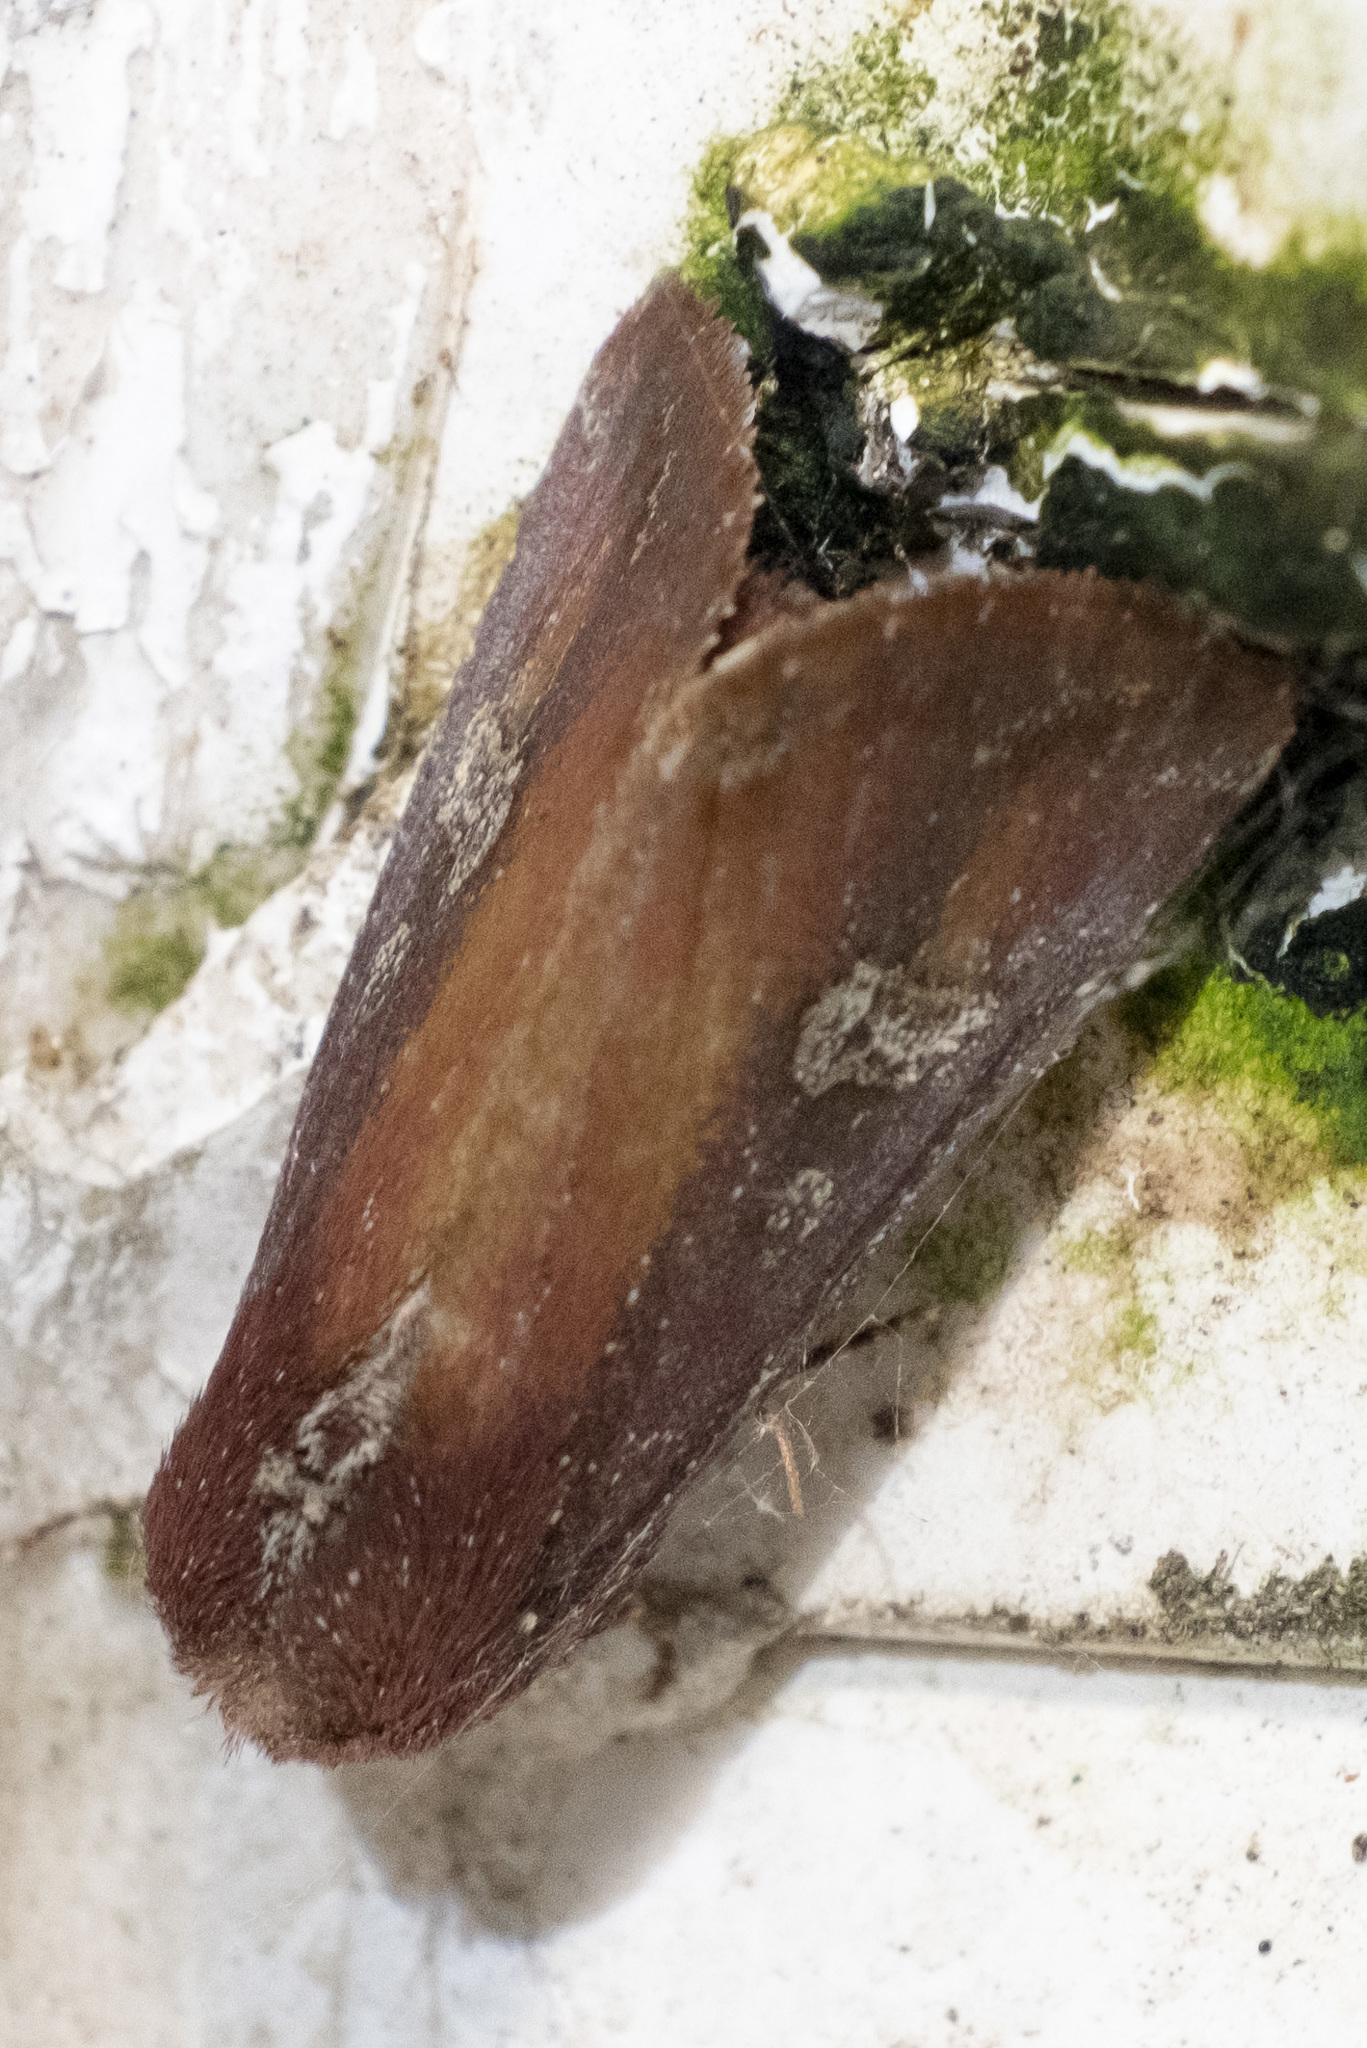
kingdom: Animalia
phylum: Arthropoda
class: Insecta
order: Lepidoptera
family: Noctuidae
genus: Condica
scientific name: Condica videns
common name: White-dotted groundling
